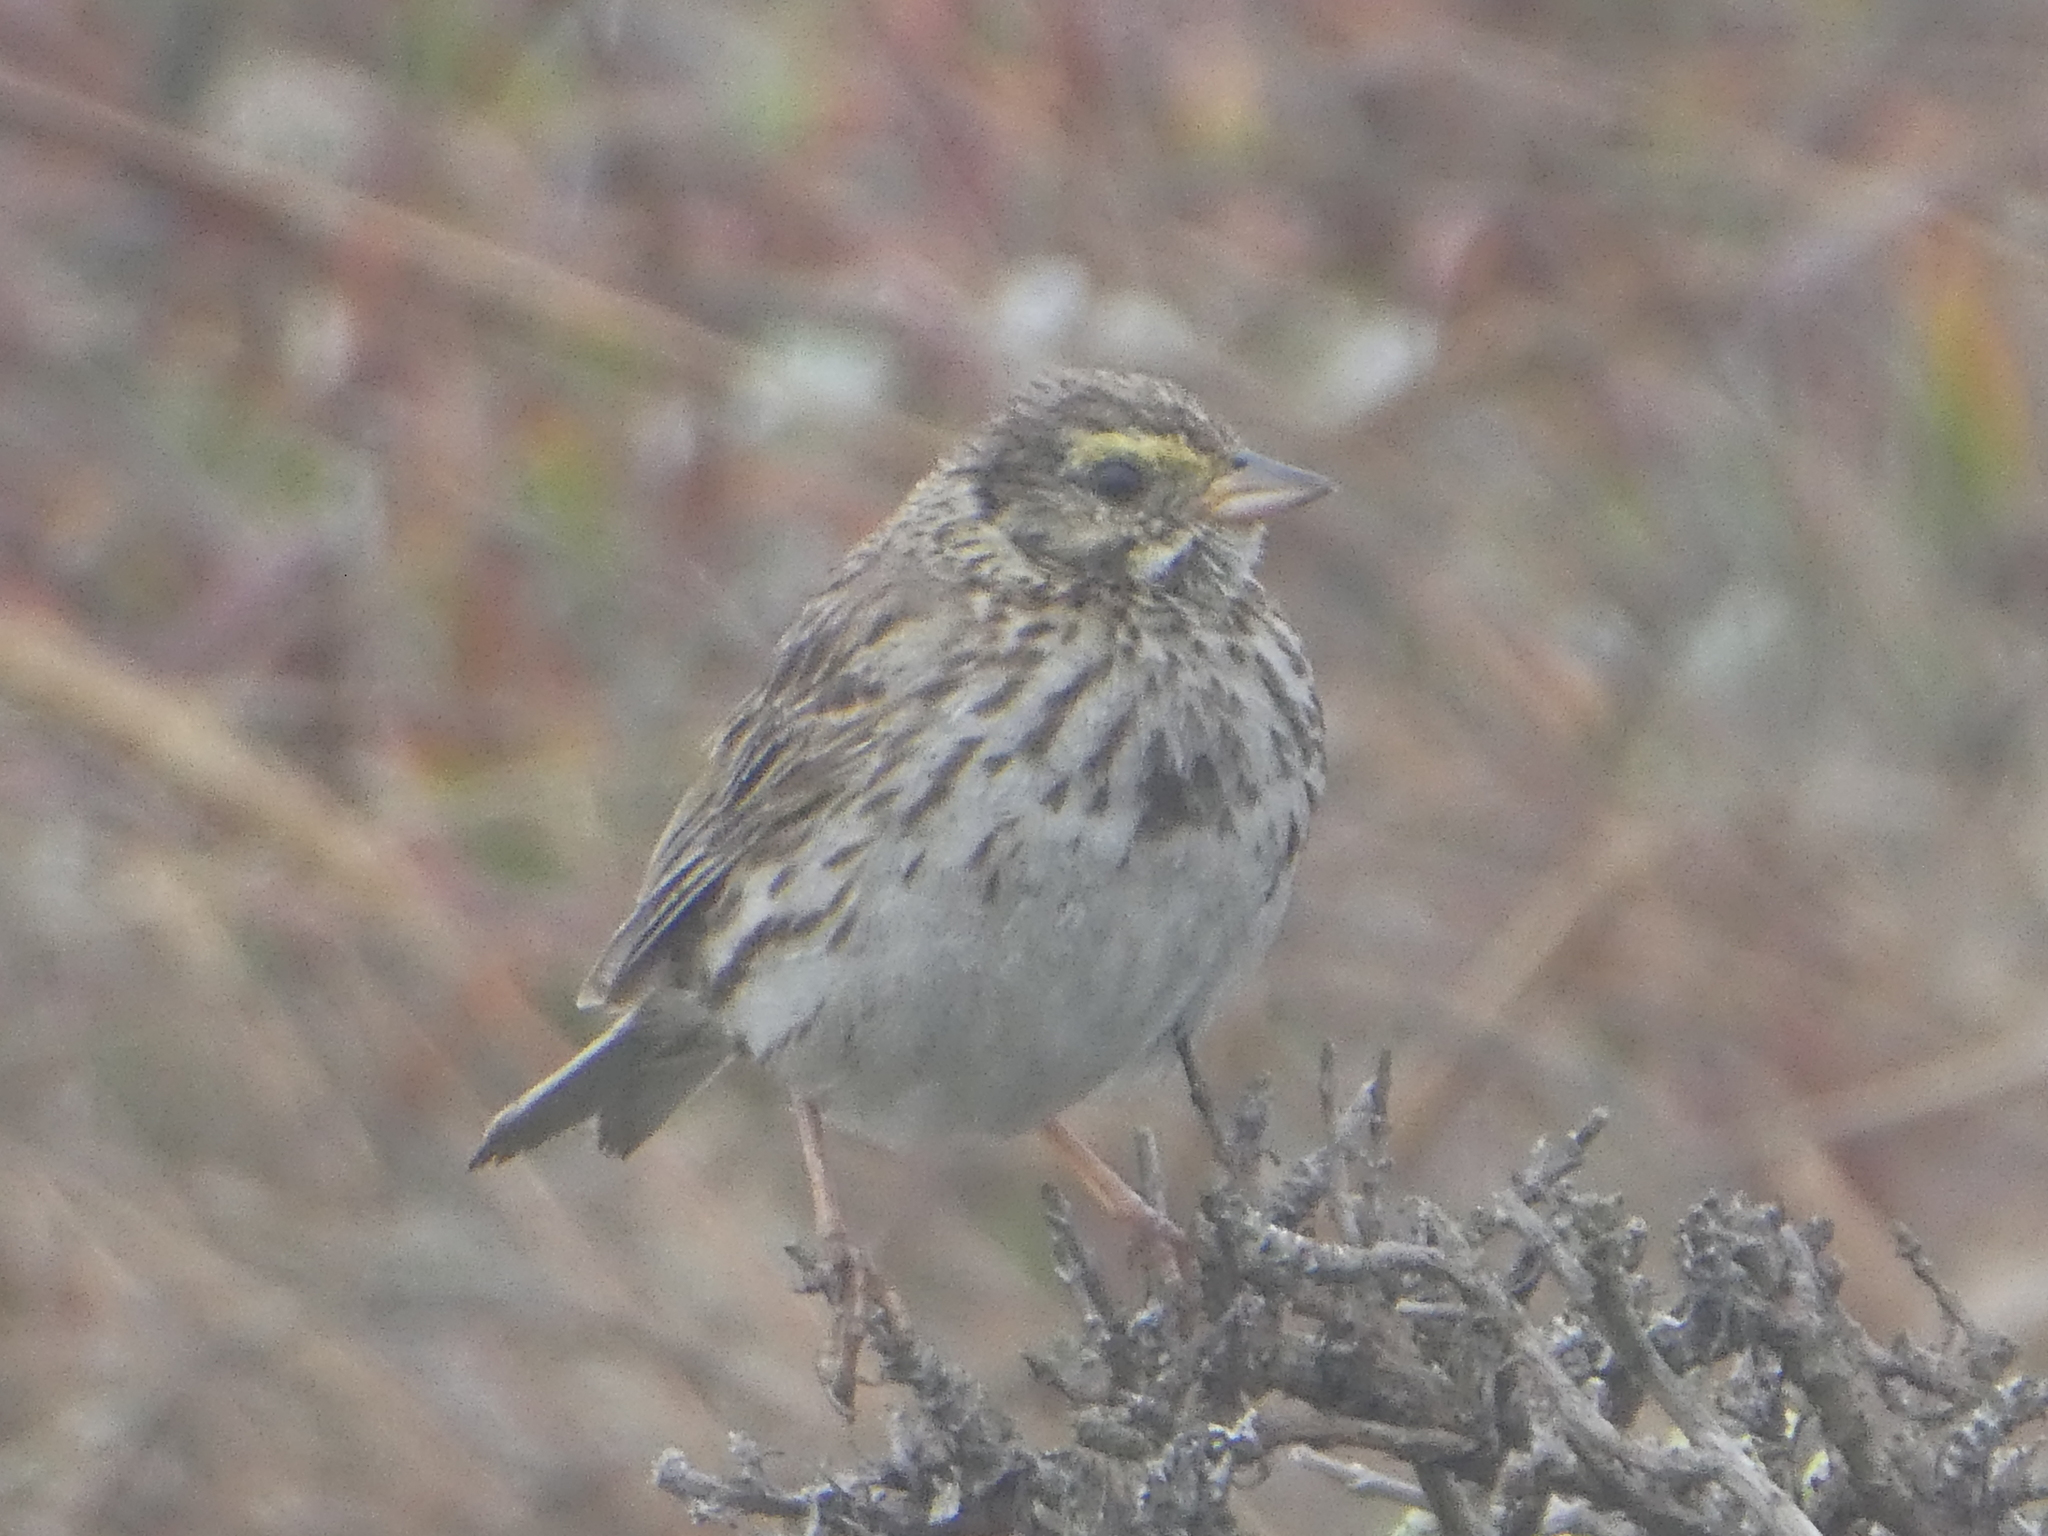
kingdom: Animalia
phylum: Chordata
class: Aves
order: Passeriformes
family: Passerellidae
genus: Passerculus
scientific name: Passerculus sandwichensis
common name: Savannah sparrow
